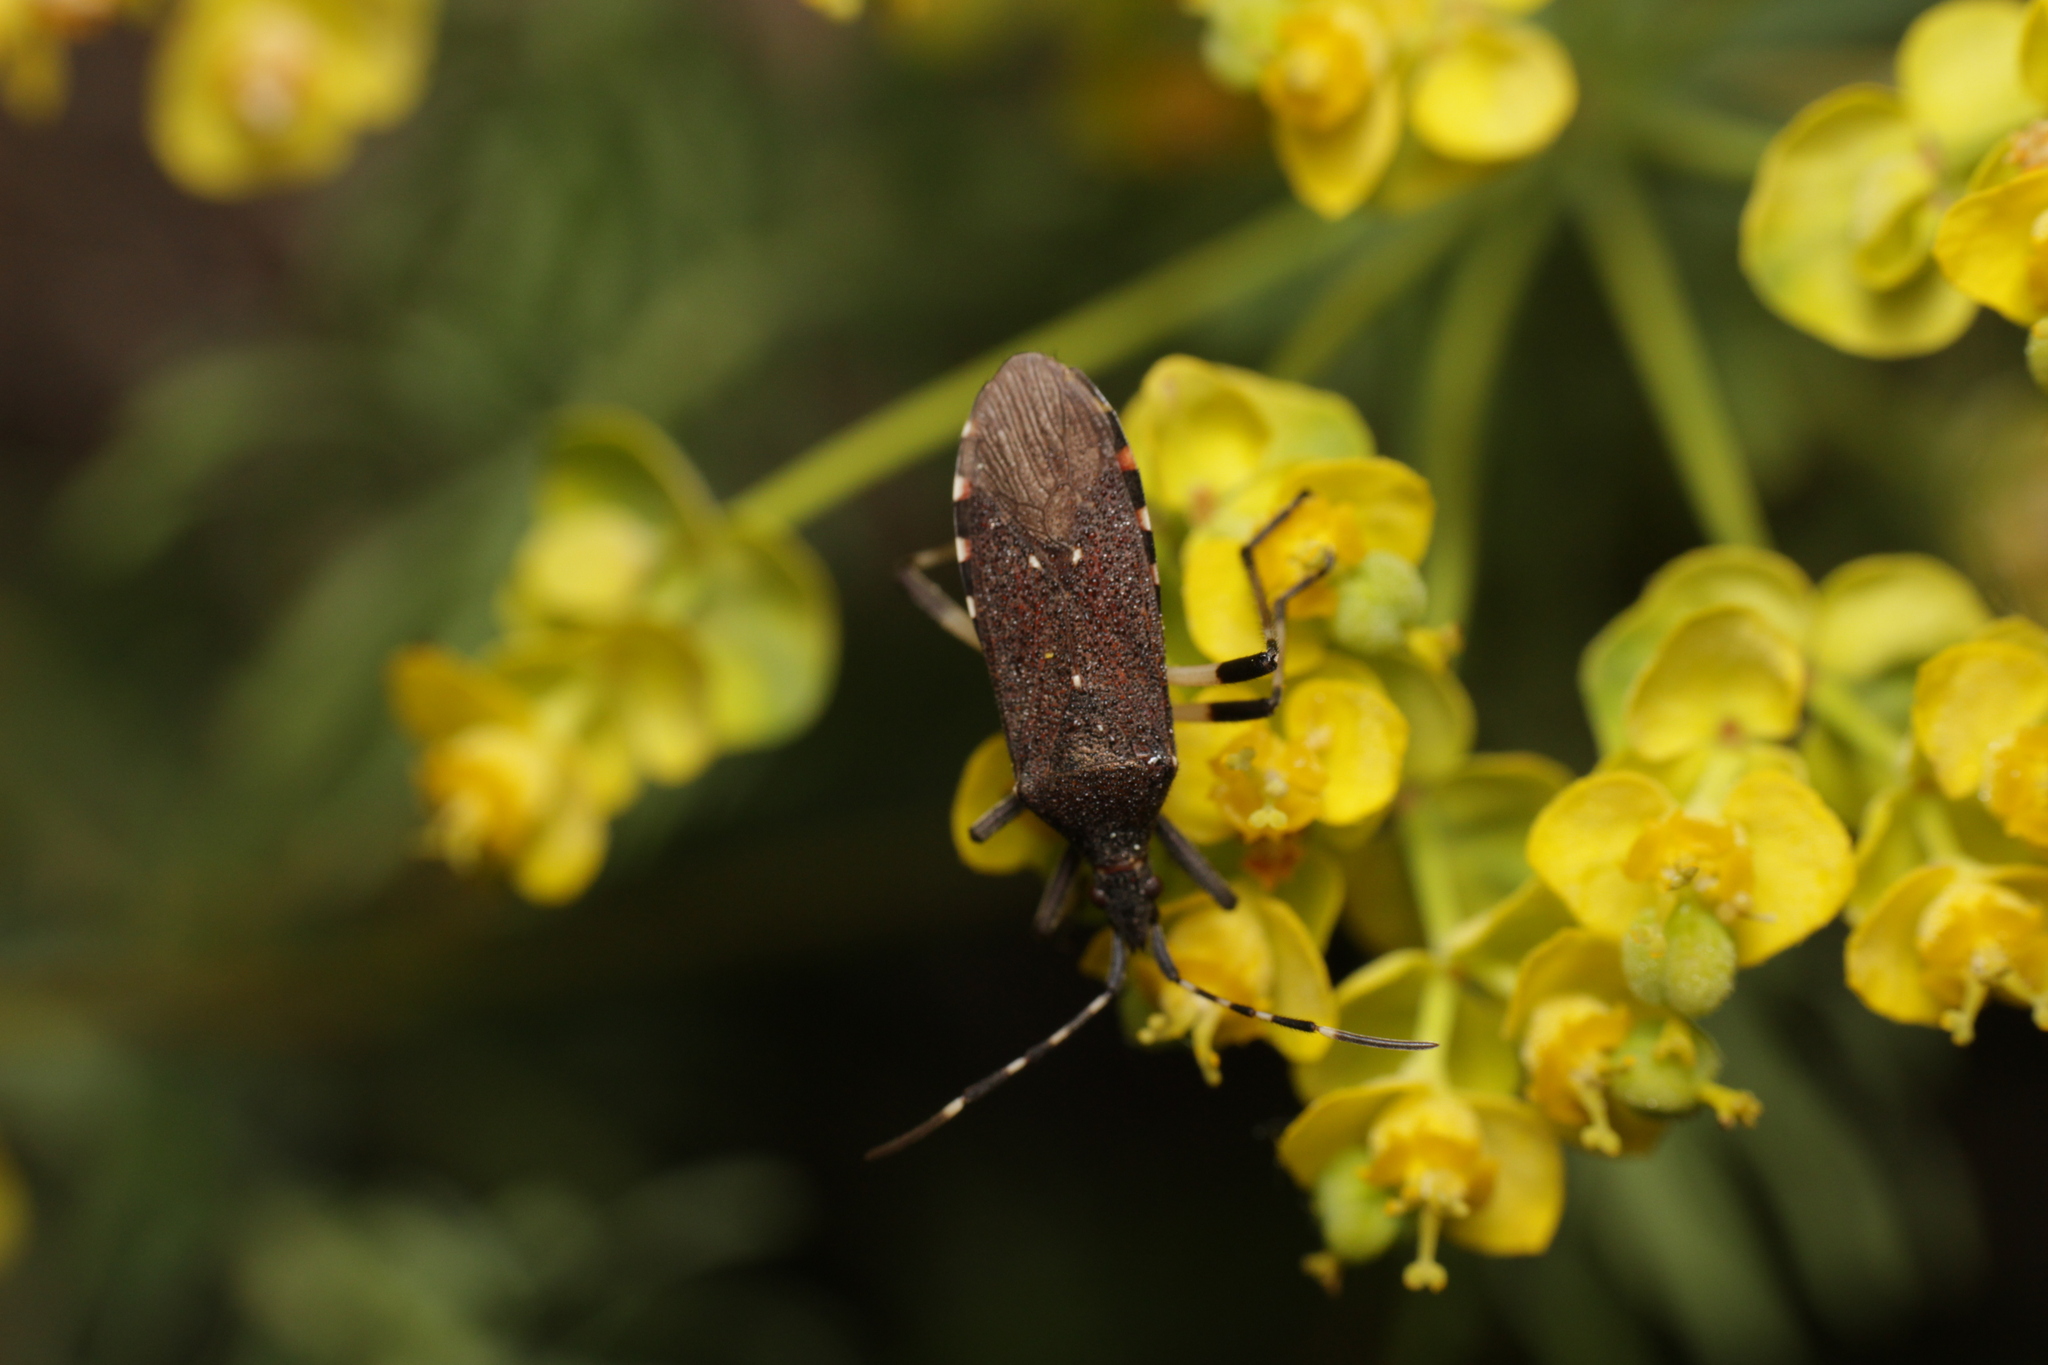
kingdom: Animalia
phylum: Arthropoda
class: Insecta
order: Hemiptera
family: Stenocephalidae
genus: Dicranocephalus
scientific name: Dicranocephalus agilis
